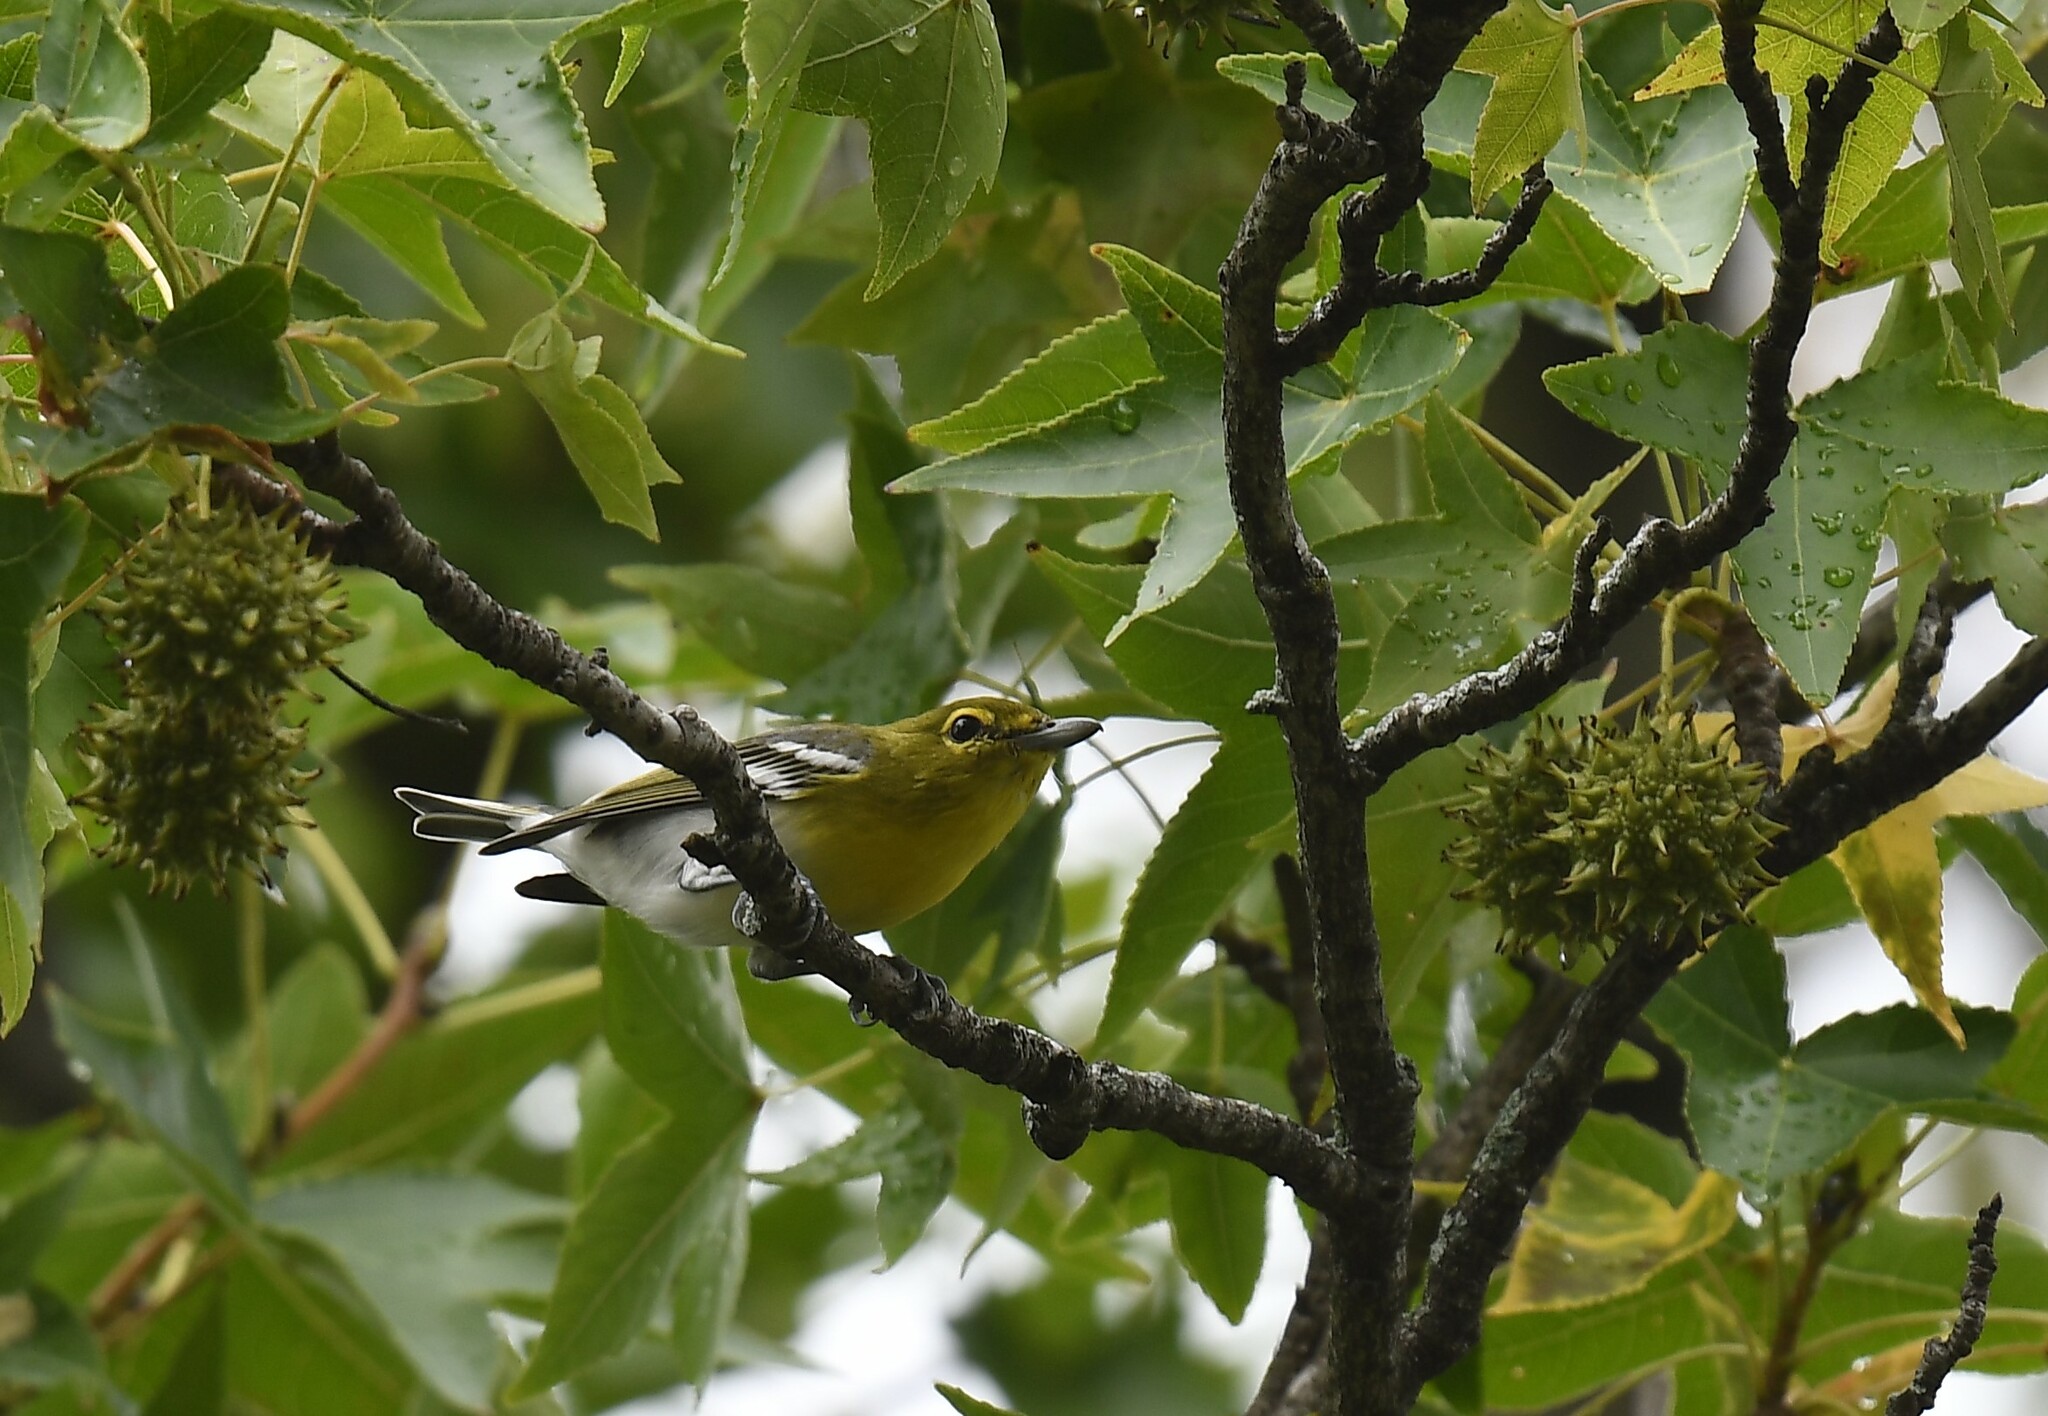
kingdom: Animalia
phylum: Chordata
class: Aves
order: Passeriformes
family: Vireonidae
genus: Vireo
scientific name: Vireo flavifrons
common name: Yellow-throated vireo
